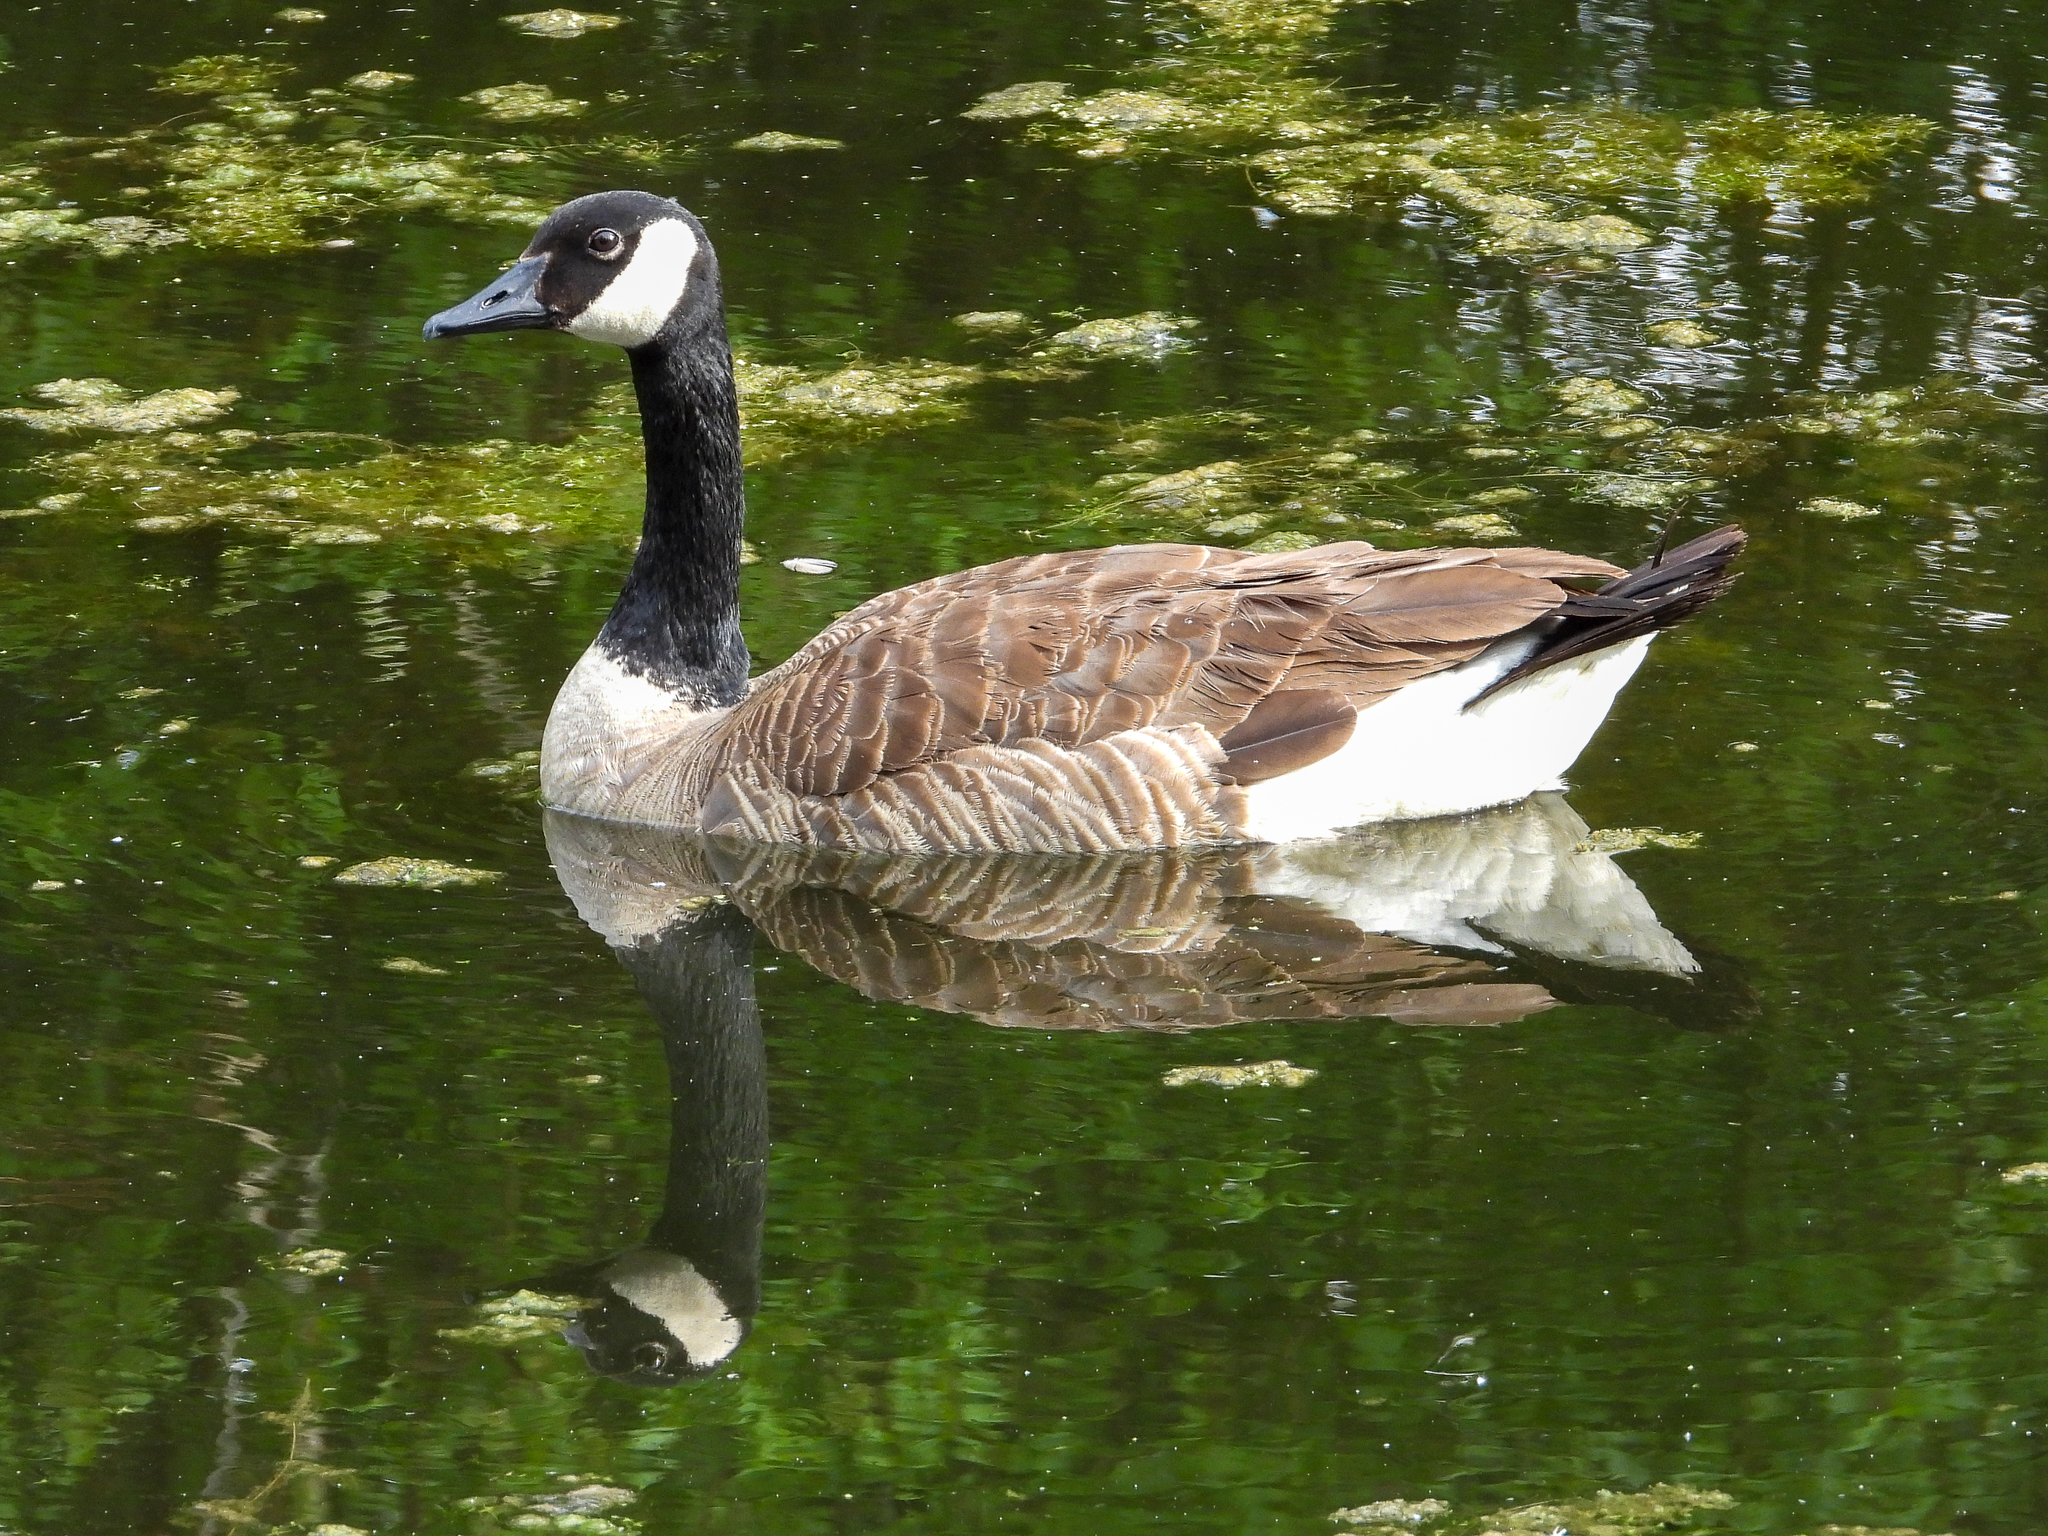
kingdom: Animalia
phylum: Chordata
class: Aves
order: Anseriformes
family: Anatidae
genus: Branta
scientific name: Branta canadensis
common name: Canada goose
